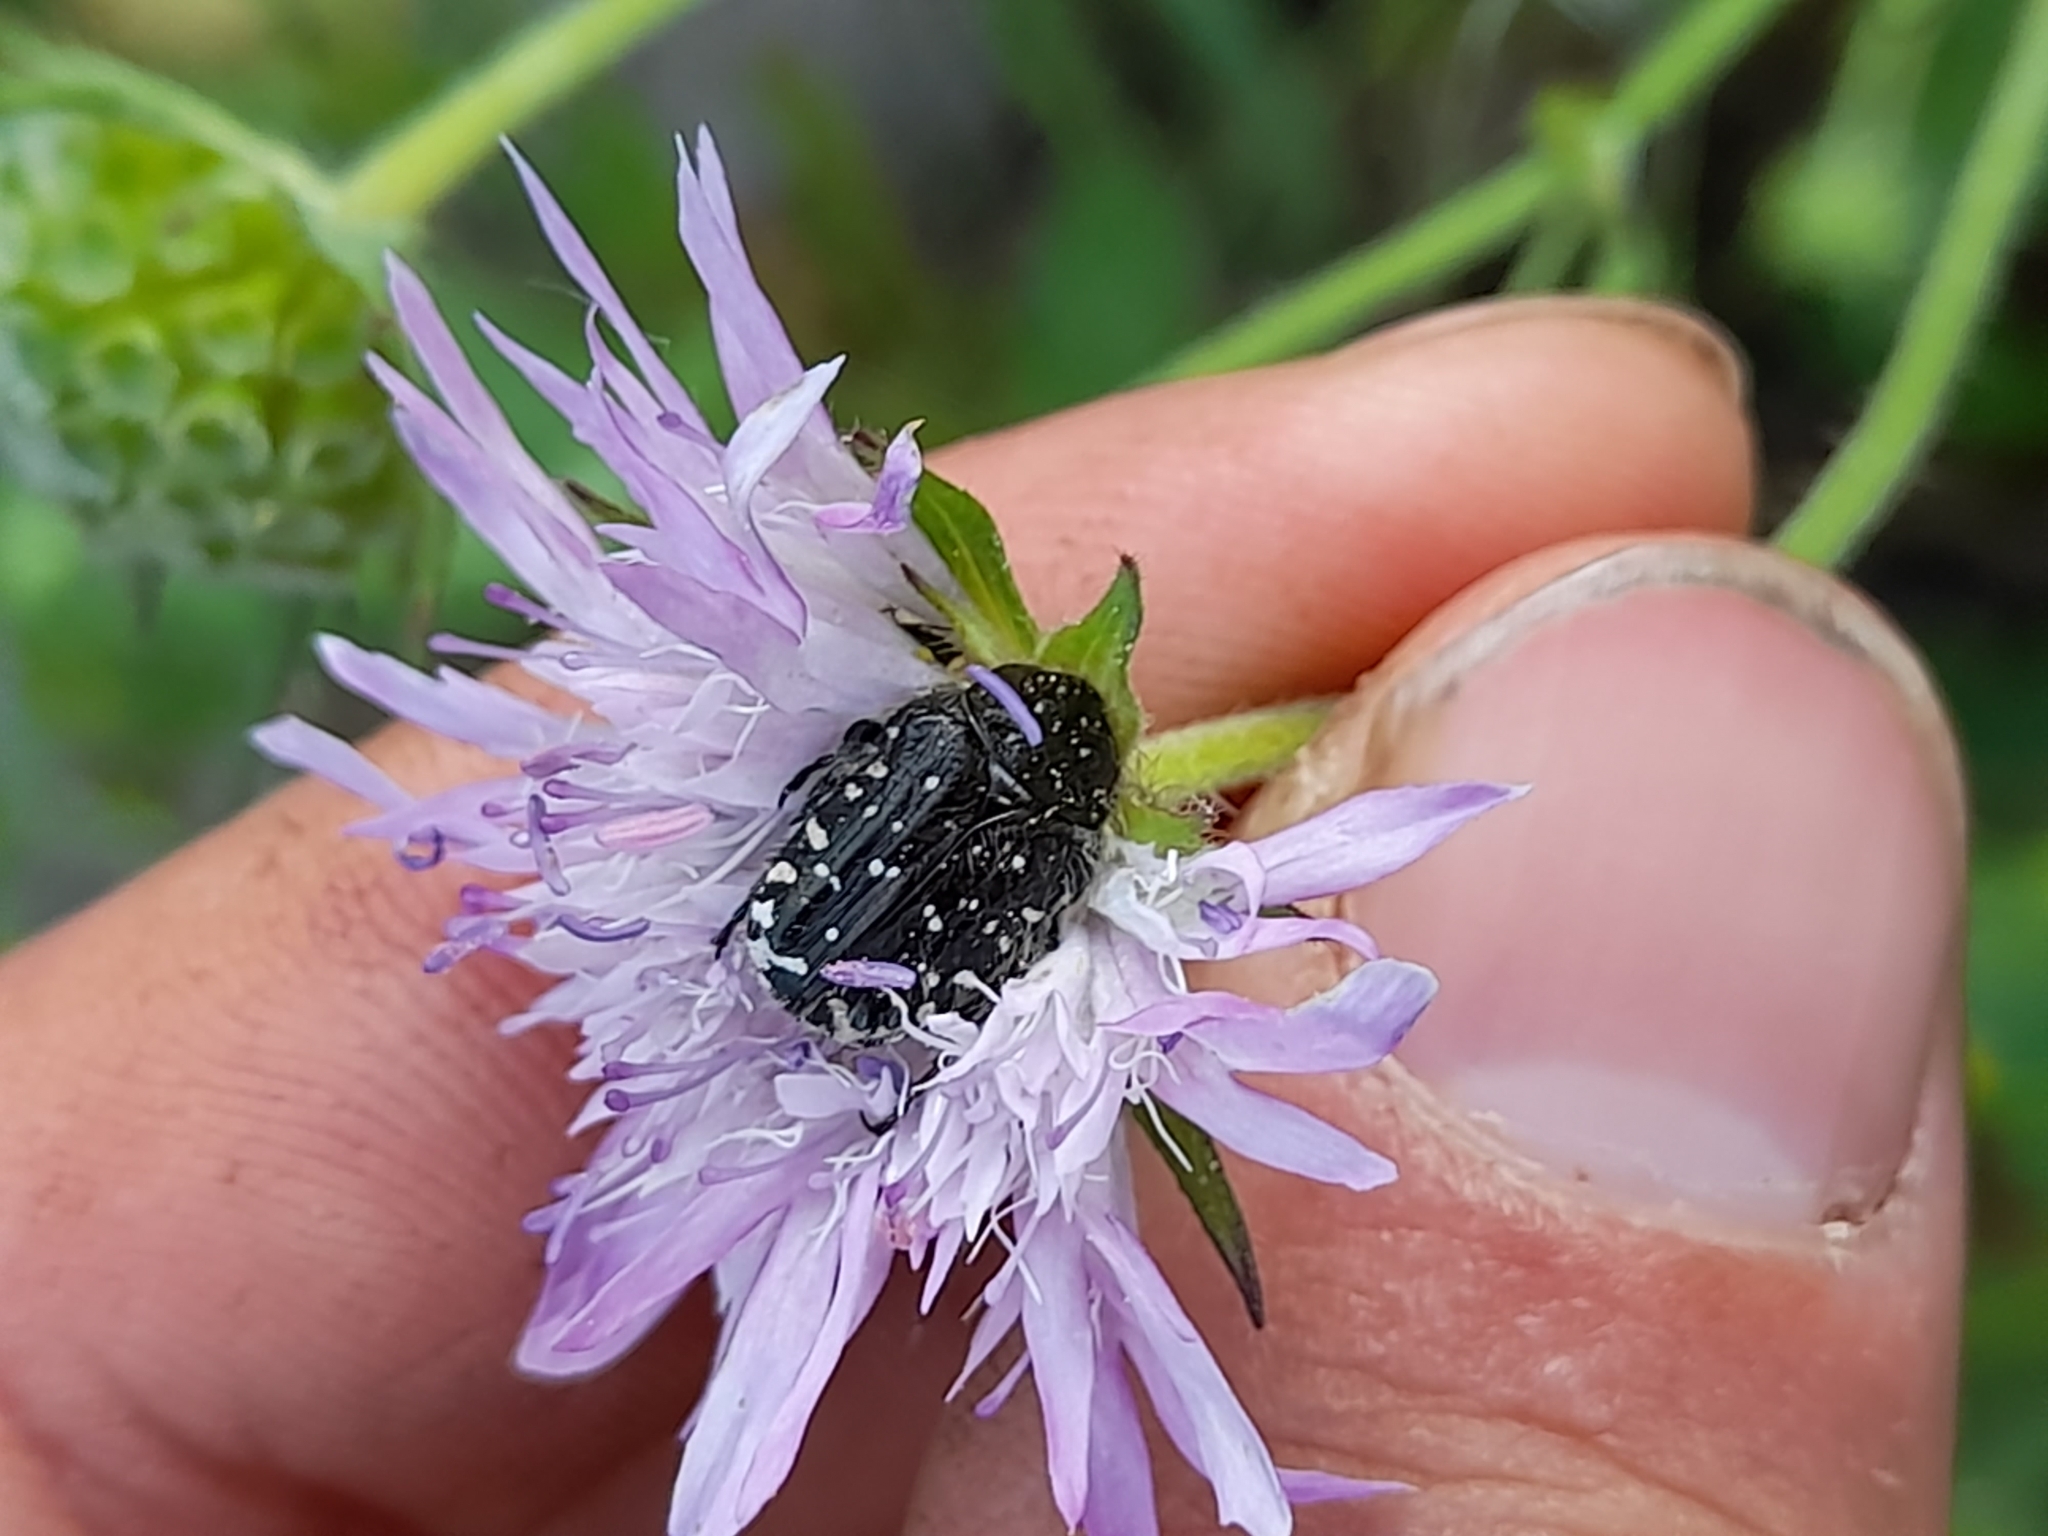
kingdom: Animalia
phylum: Arthropoda
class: Insecta
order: Coleoptera
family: Scarabaeidae
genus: Oxythyrea
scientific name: Oxythyrea funesta
